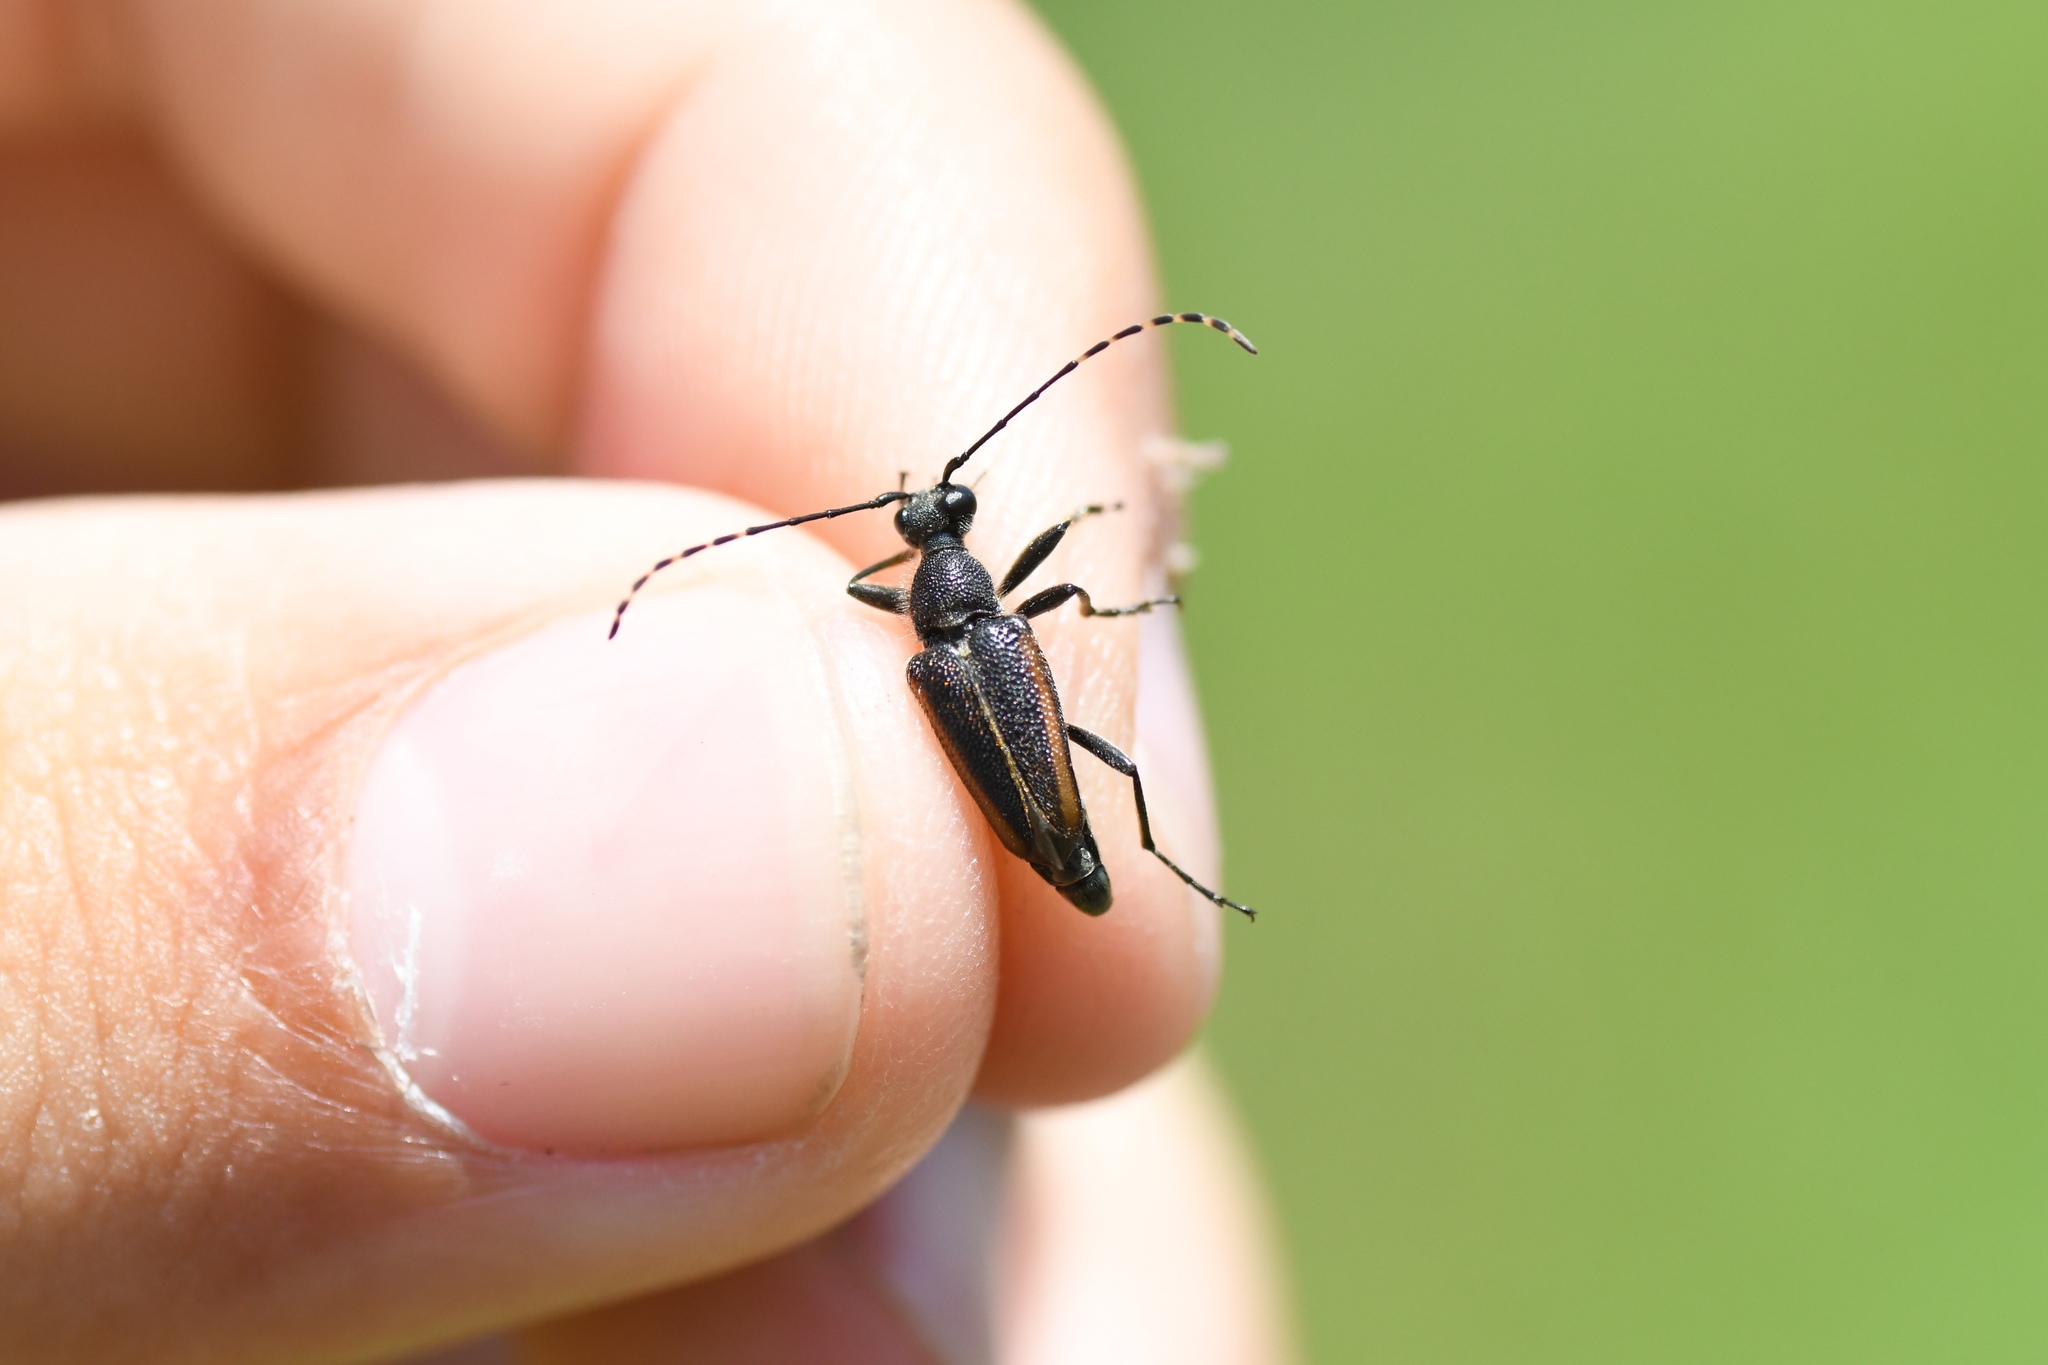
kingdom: Animalia
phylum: Arthropoda
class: Insecta
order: Coleoptera
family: Cerambycidae
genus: Brachyleptura
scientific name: Brachyleptura vagans
